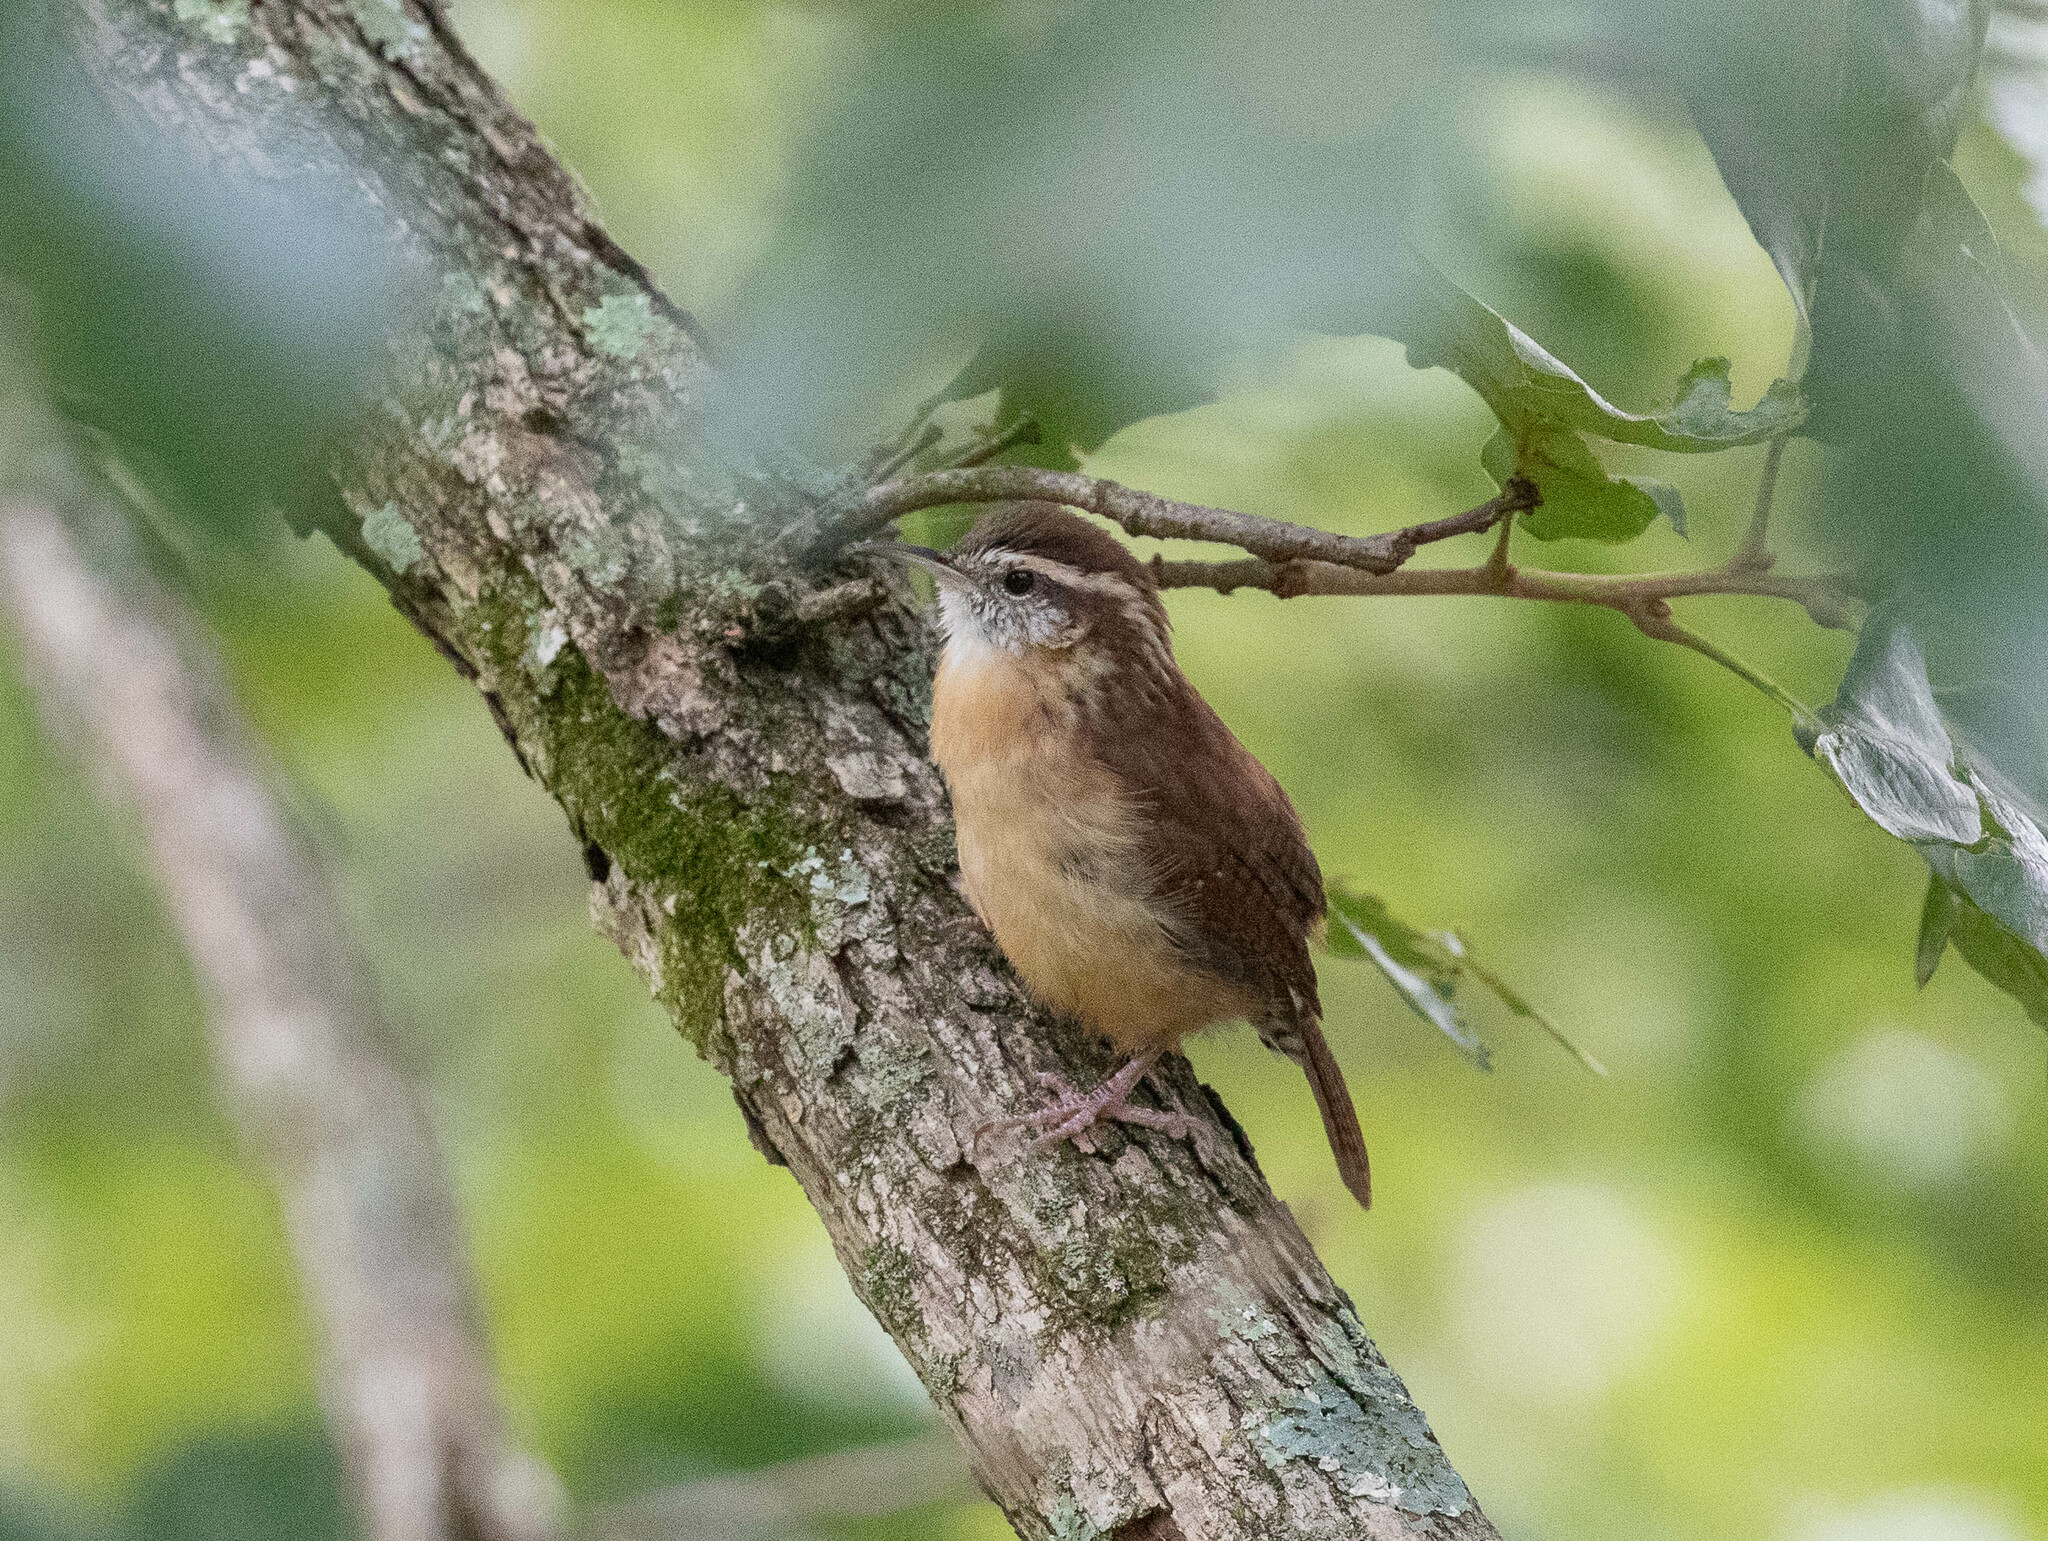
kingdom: Animalia
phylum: Chordata
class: Aves
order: Passeriformes
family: Troglodytidae
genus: Thryothorus
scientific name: Thryothorus ludovicianus
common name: Carolina wren
